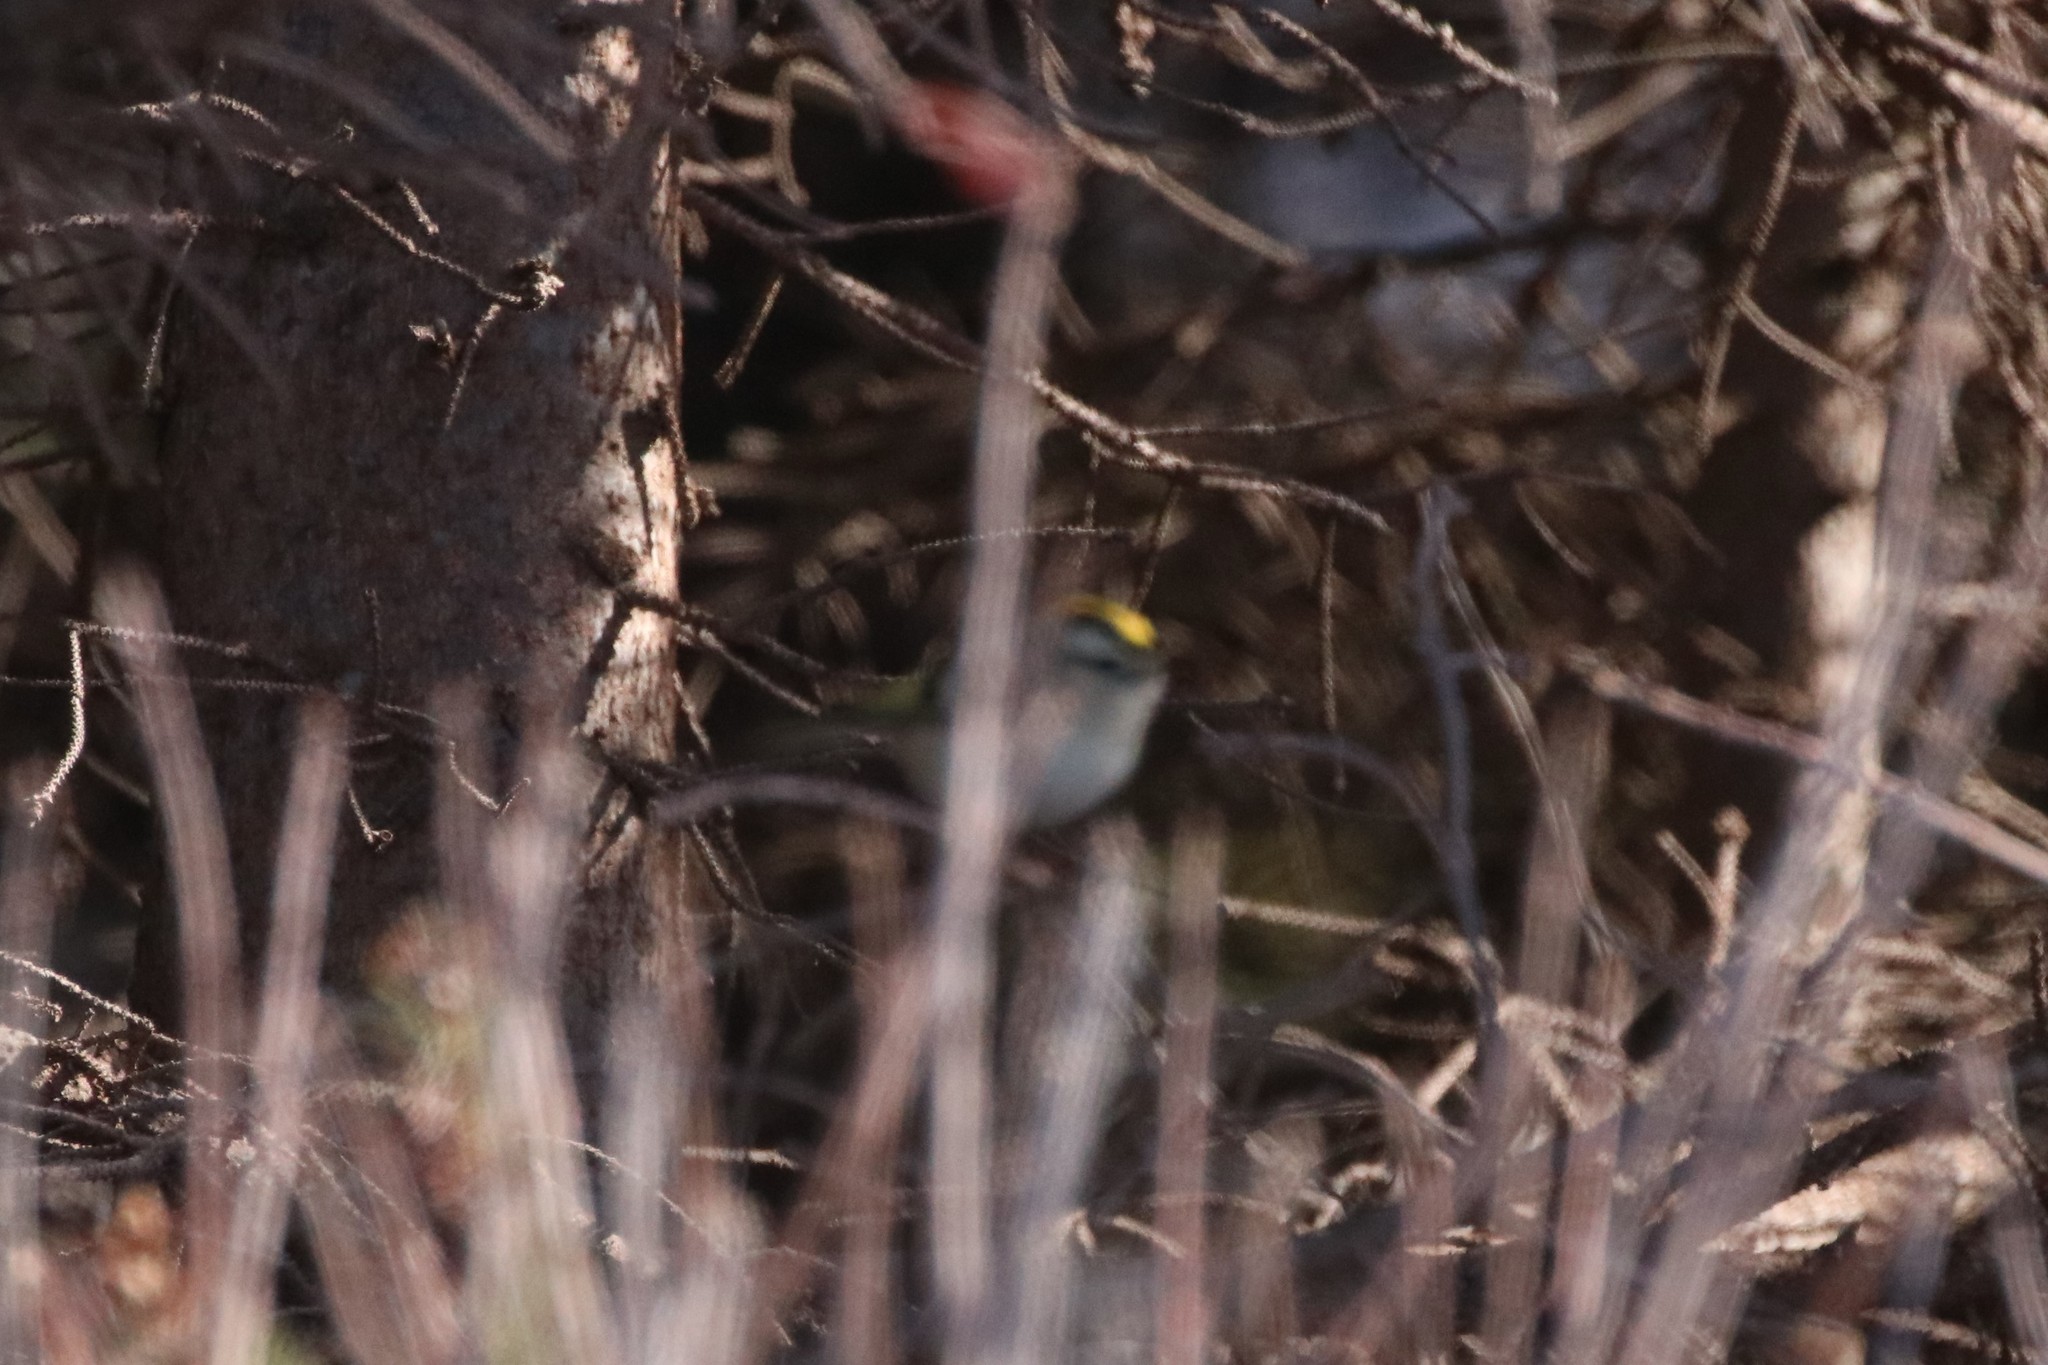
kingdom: Animalia
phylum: Chordata
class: Aves
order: Passeriformes
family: Regulidae
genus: Regulus
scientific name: Regulus satrapa
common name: Golden-crowned kinglet
